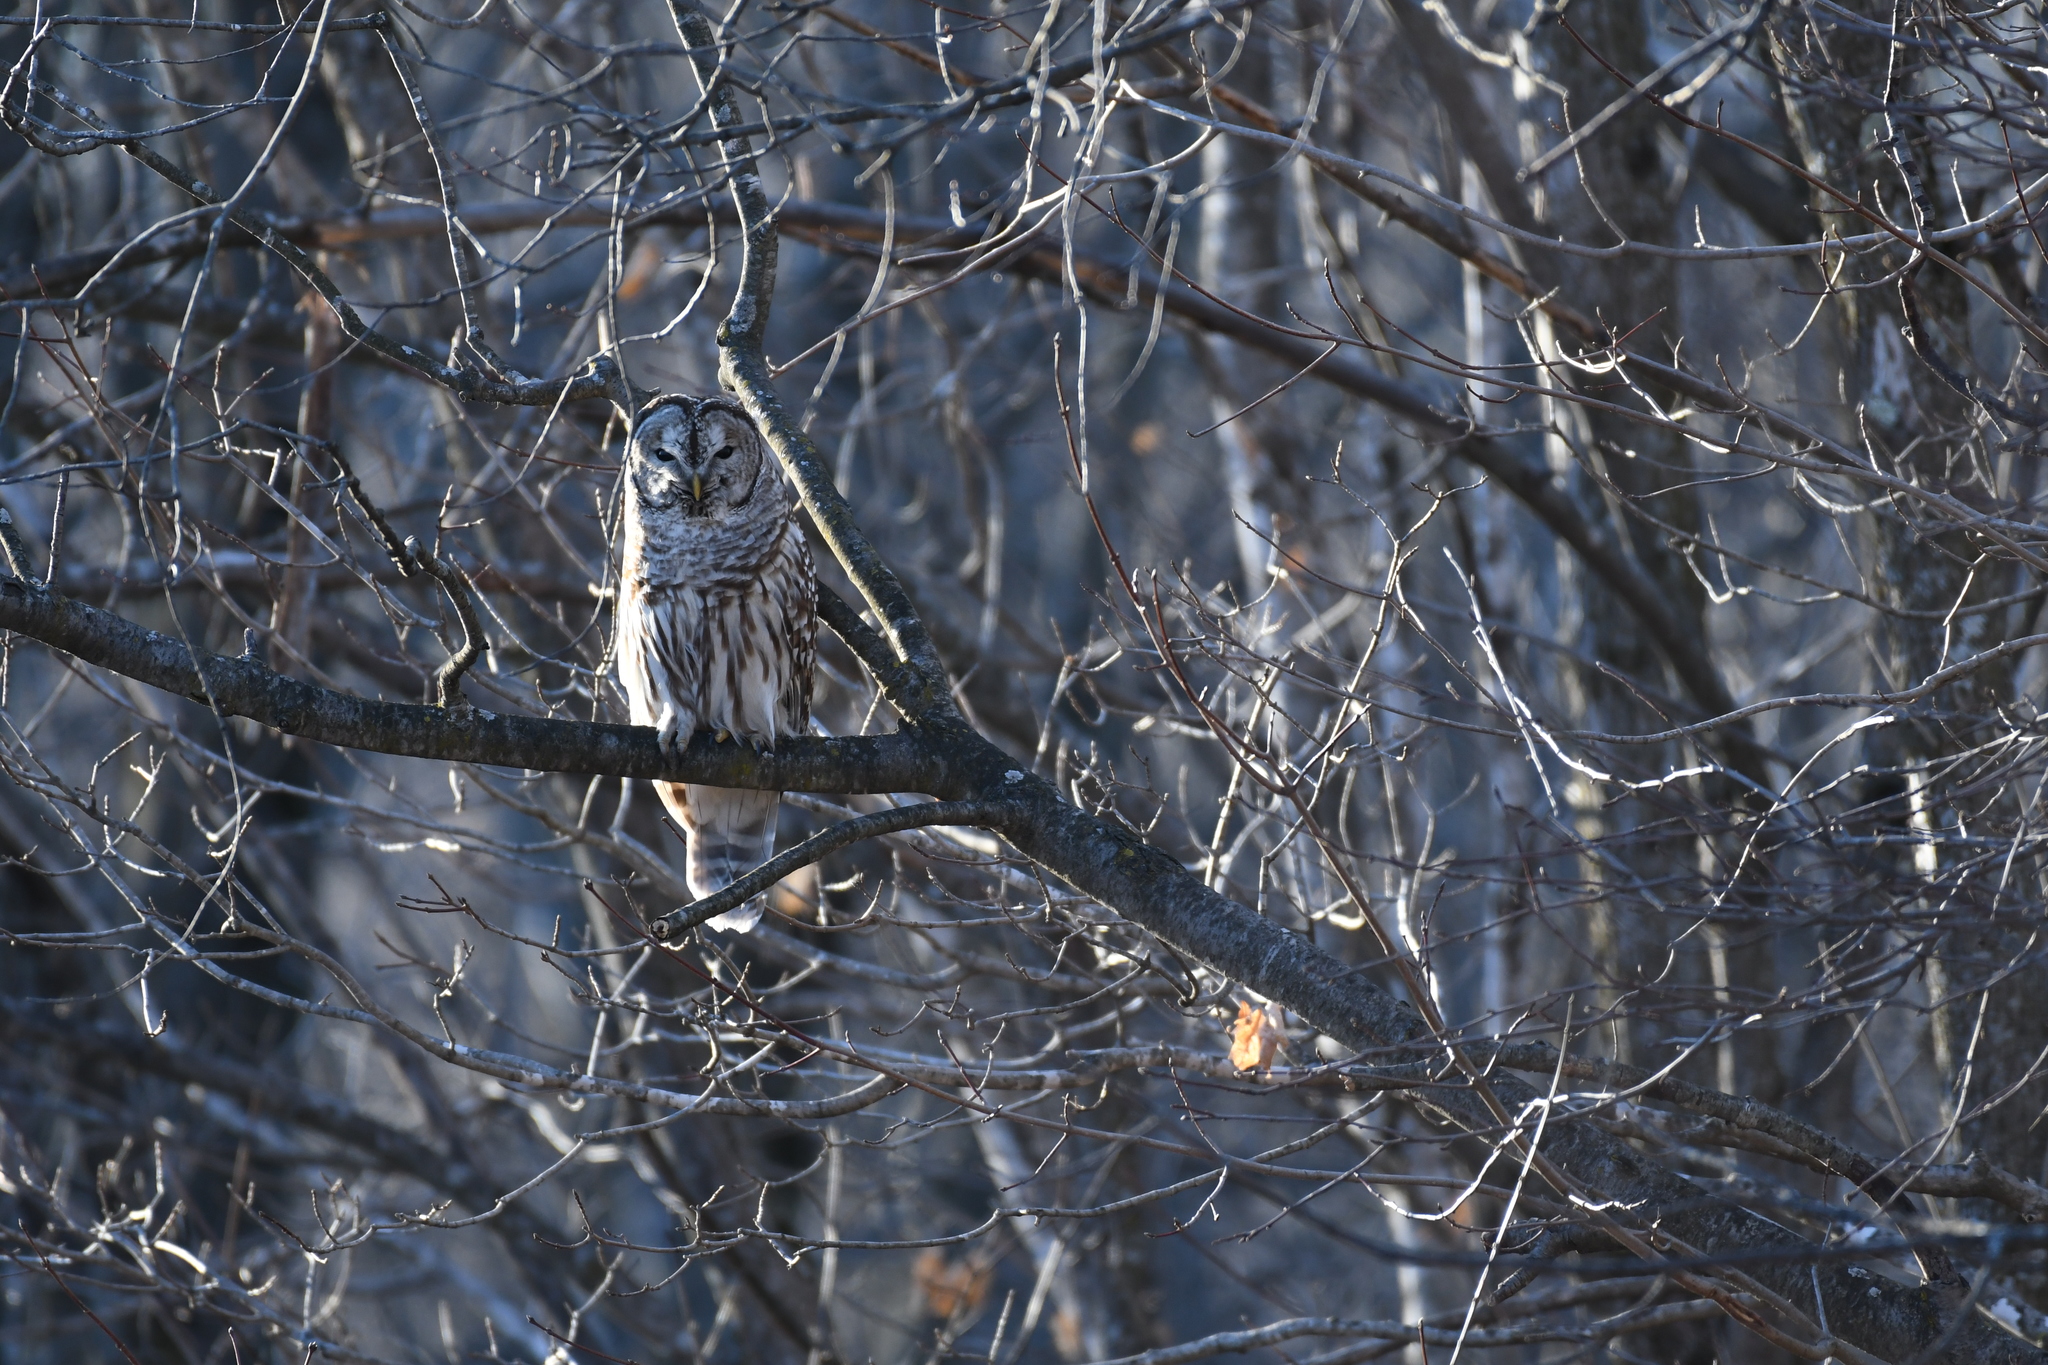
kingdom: Animalia
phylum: Chordata
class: Aves
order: Strigiformes
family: Strigidae
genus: Strix
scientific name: Strix varia
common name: Barred owl
